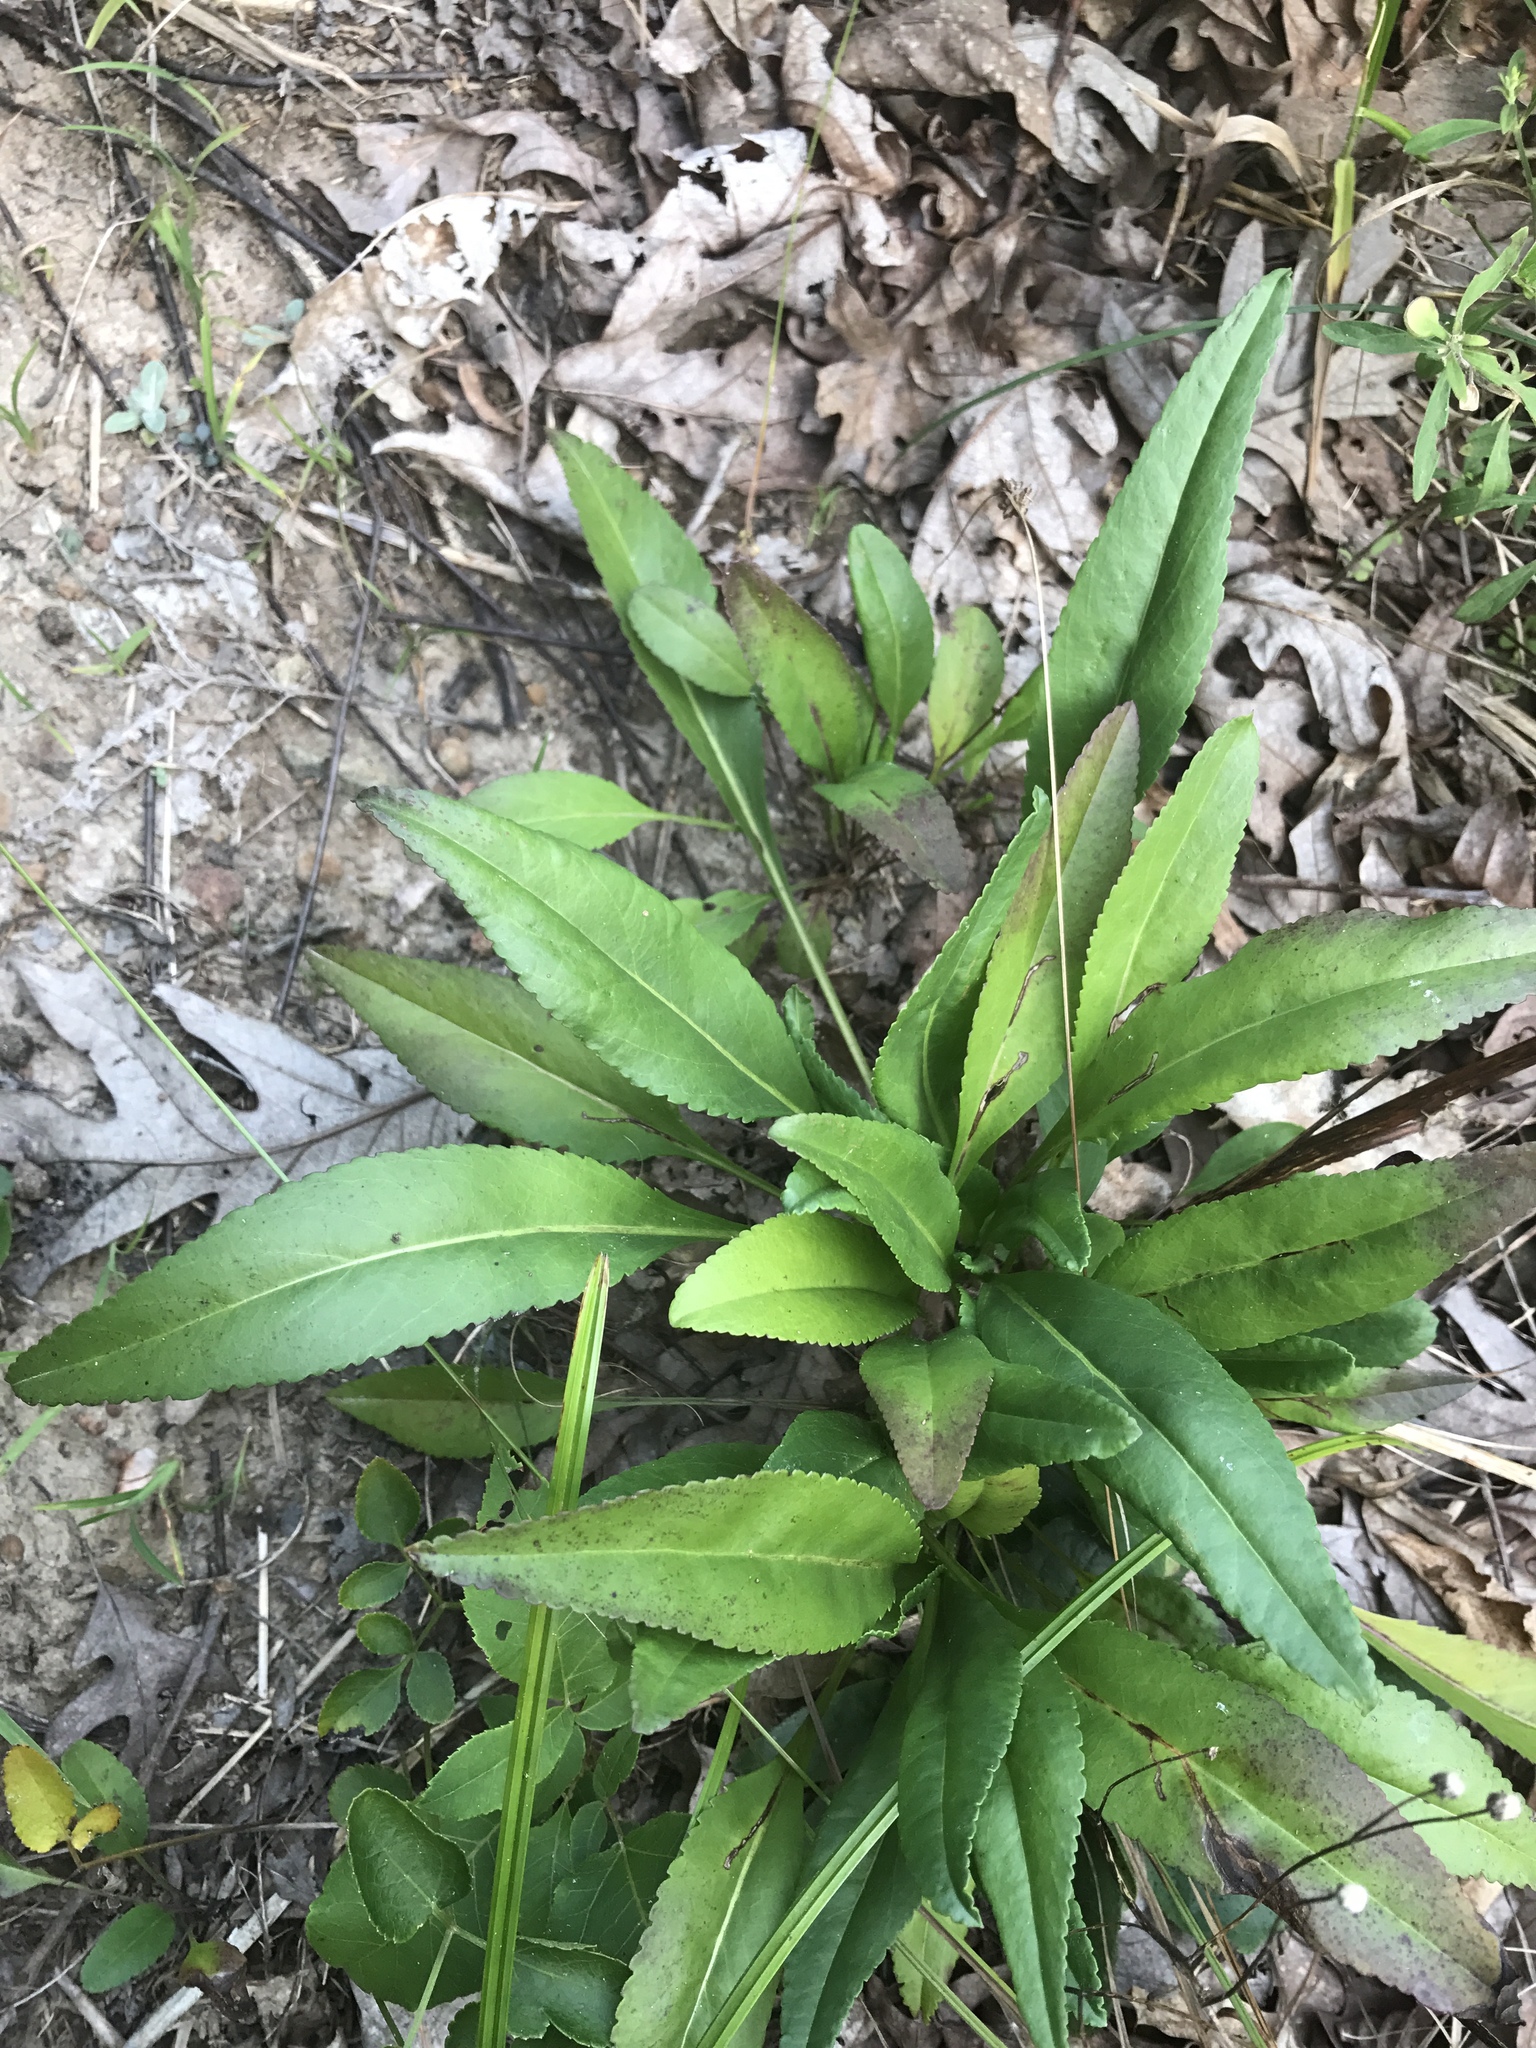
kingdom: Plantae
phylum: Tracheophyta
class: Magnoliopsida
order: Asterales
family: Asteraceae
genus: Packera
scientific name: Packera anonyma
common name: Small ragwort
